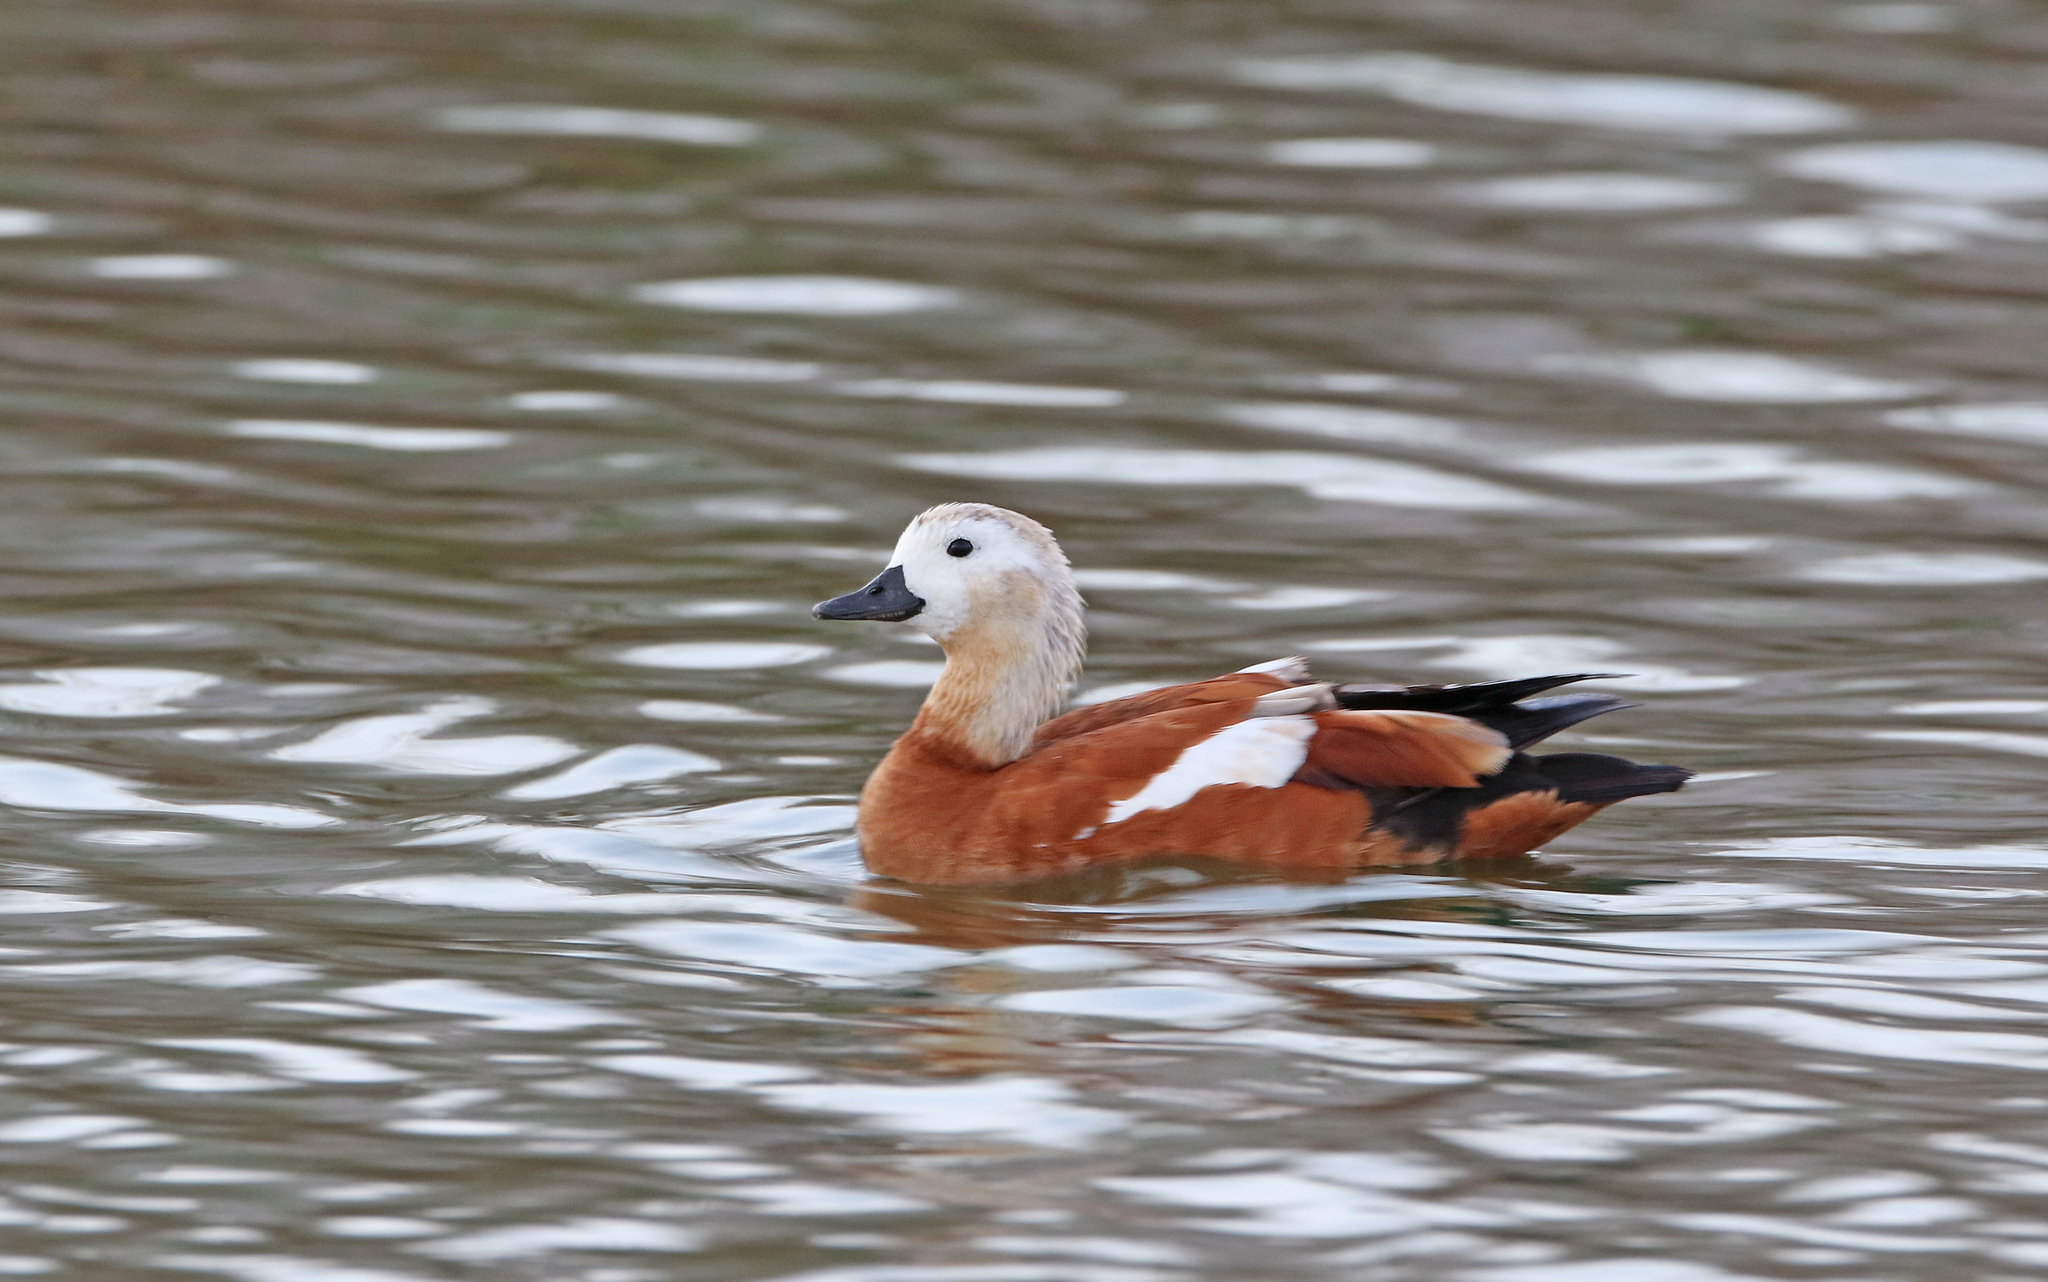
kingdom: Animalia
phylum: Chordata
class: Aves
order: Anseriformes
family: Anatidae
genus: Tadorna
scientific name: Tadorna ferruginea
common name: Ruddy shelduck
